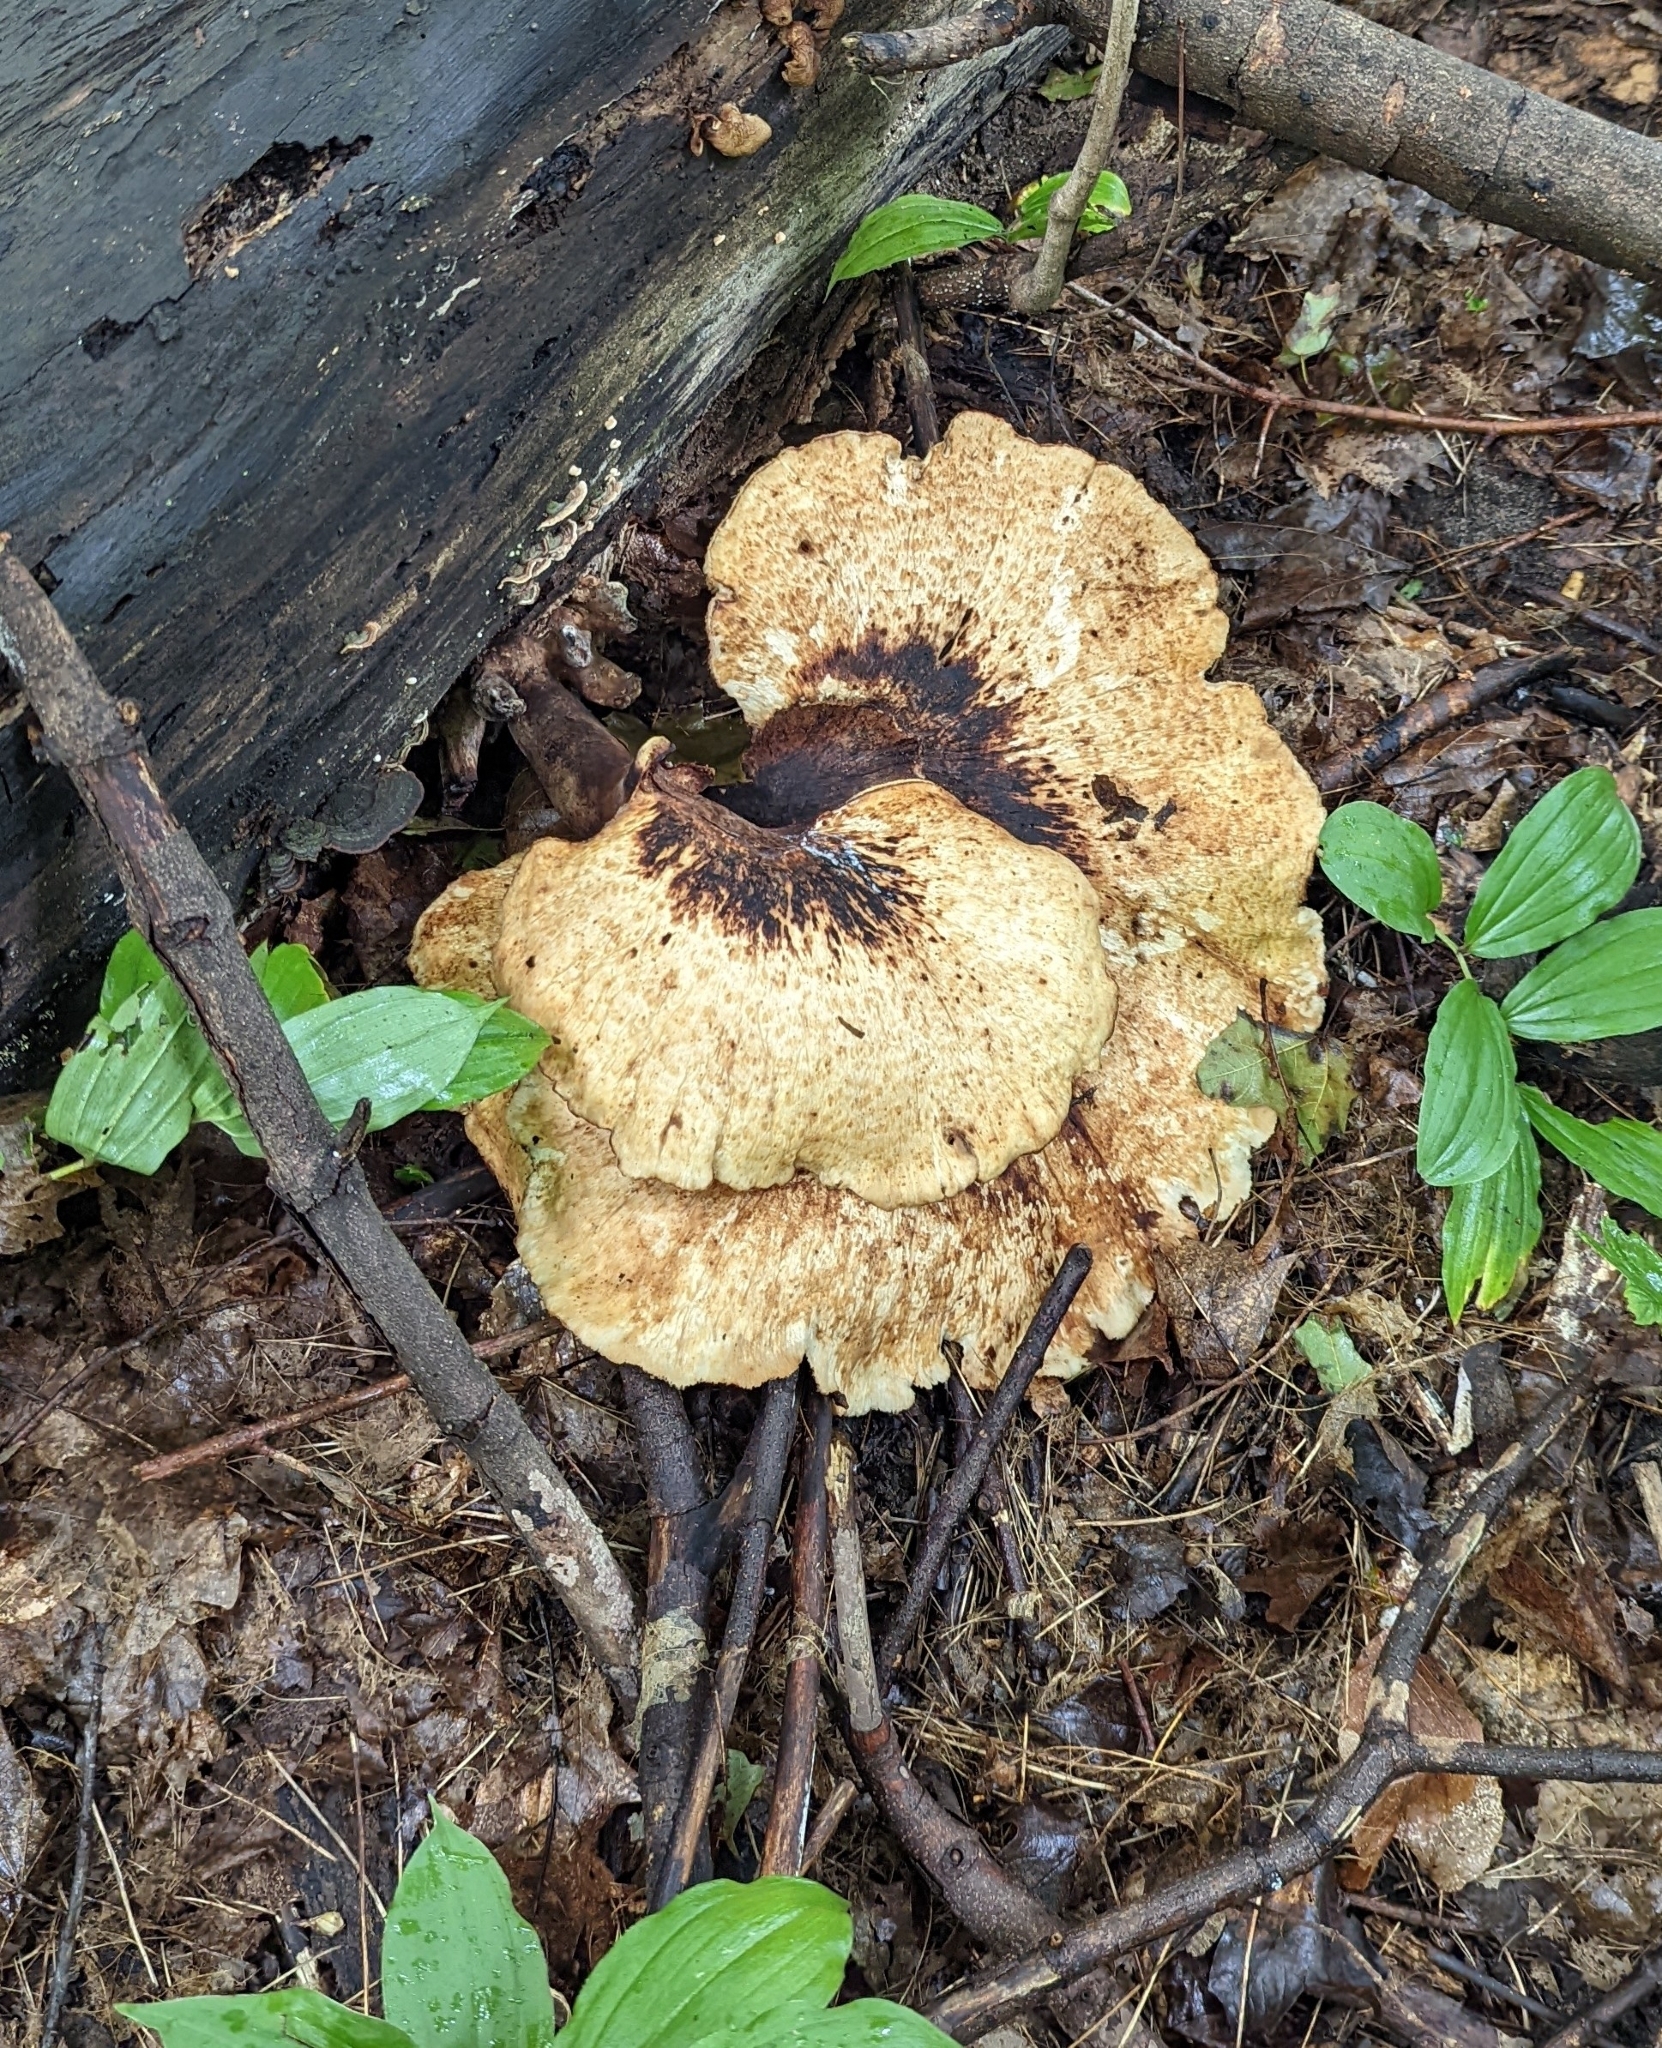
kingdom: Fungi
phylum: Basidiomycota
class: Agaricomycetes
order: Polyporales
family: Polyporaceae
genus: Cerioporus
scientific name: Cerioporus squamosus
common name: Dryad's saddle
